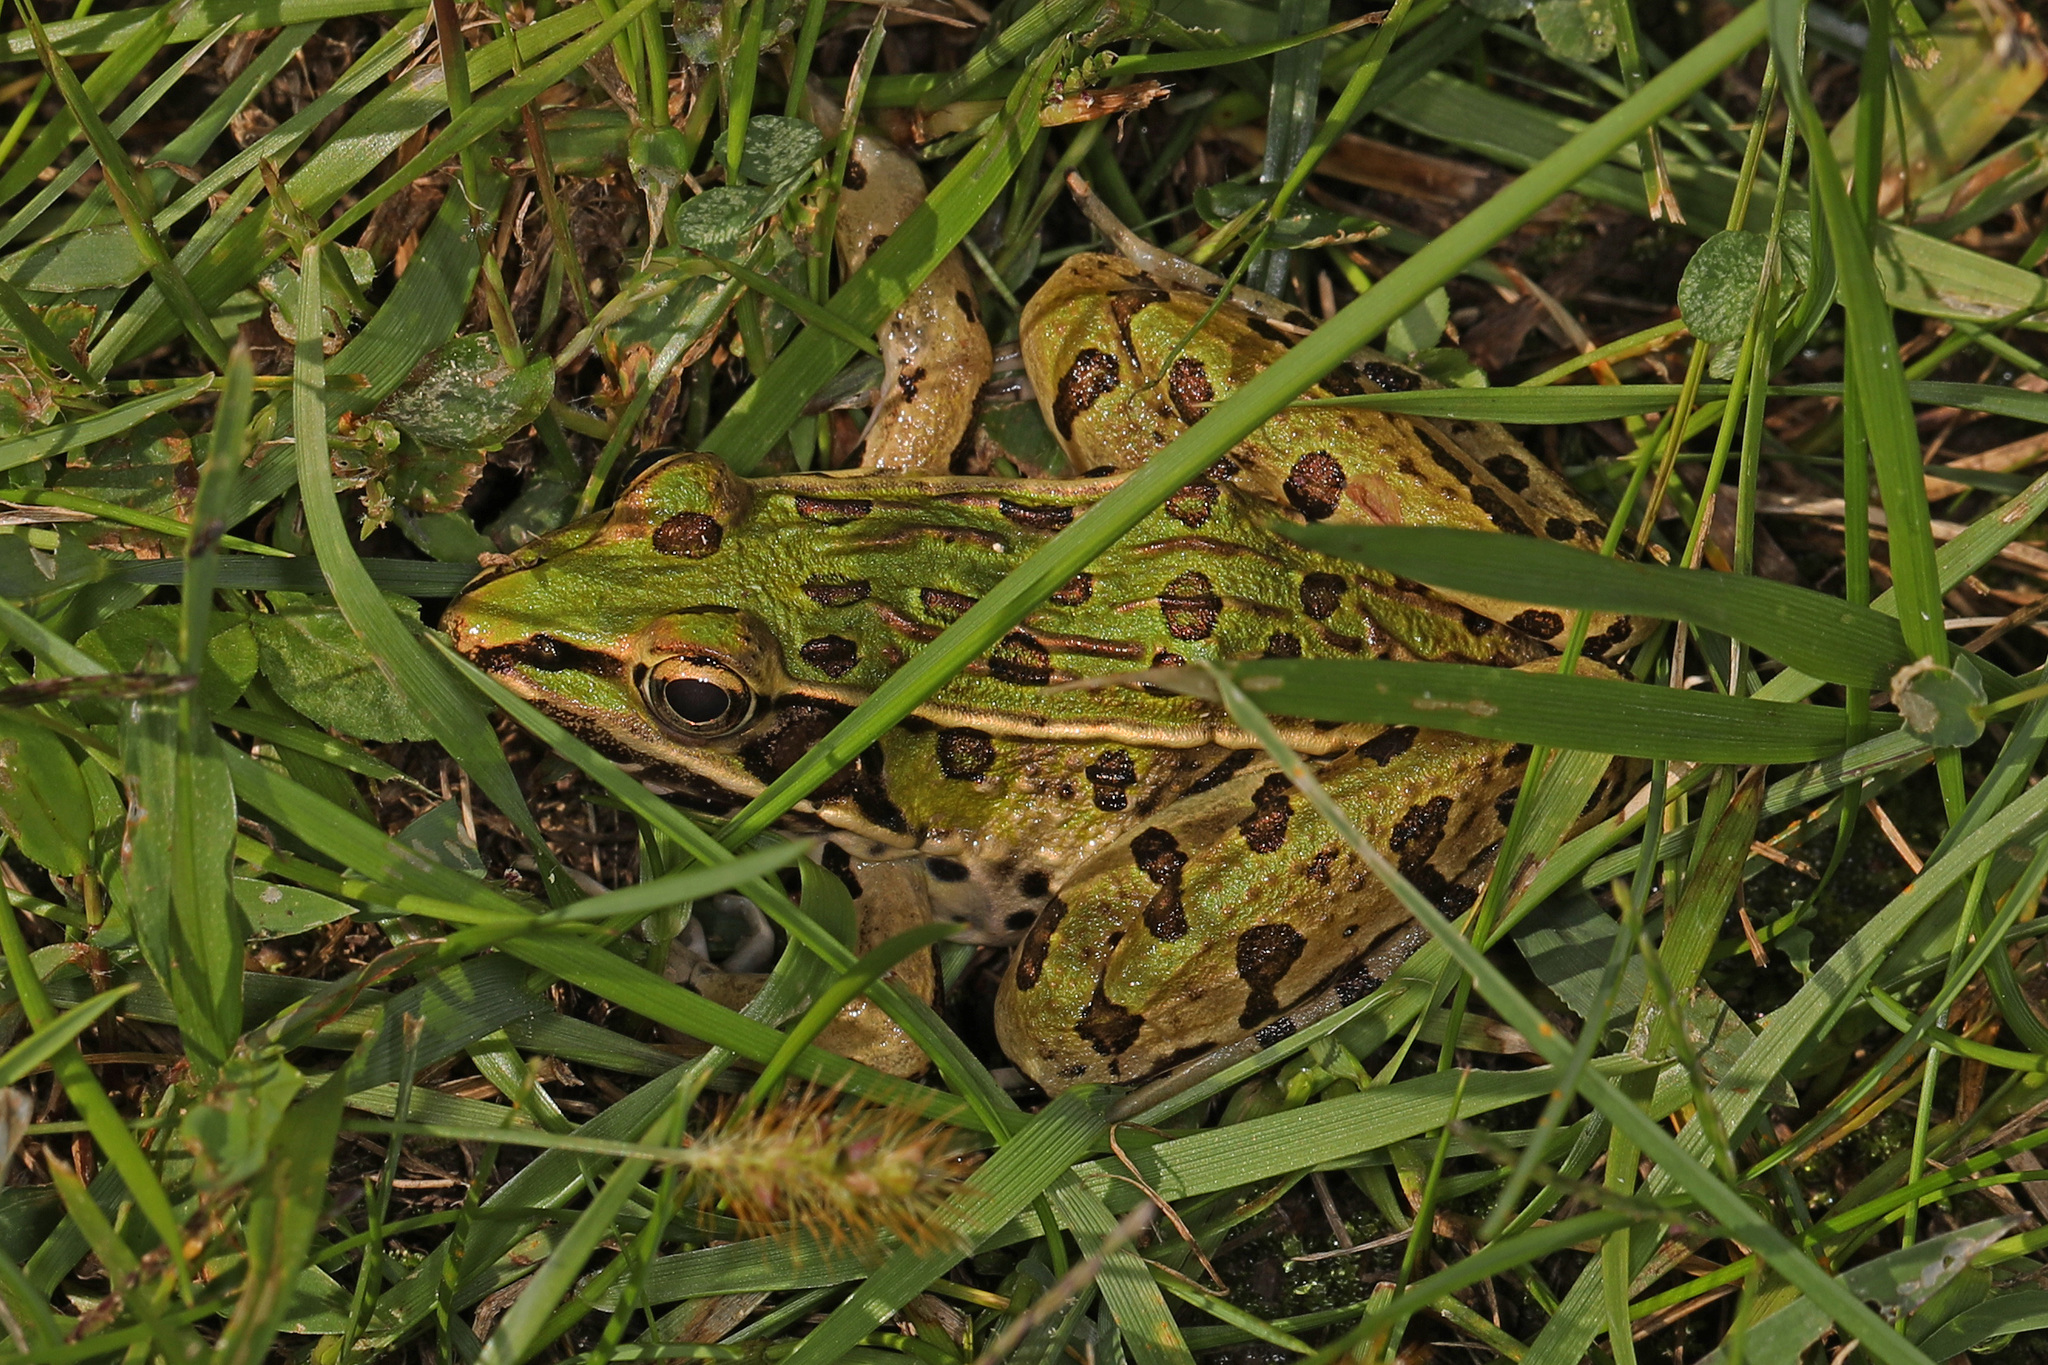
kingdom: Animalia
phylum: Chordata
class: Amphibia
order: Anura
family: Ranidae
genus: Lithobates
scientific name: Lithobates sphenocephalus
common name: Southern leopard frog
